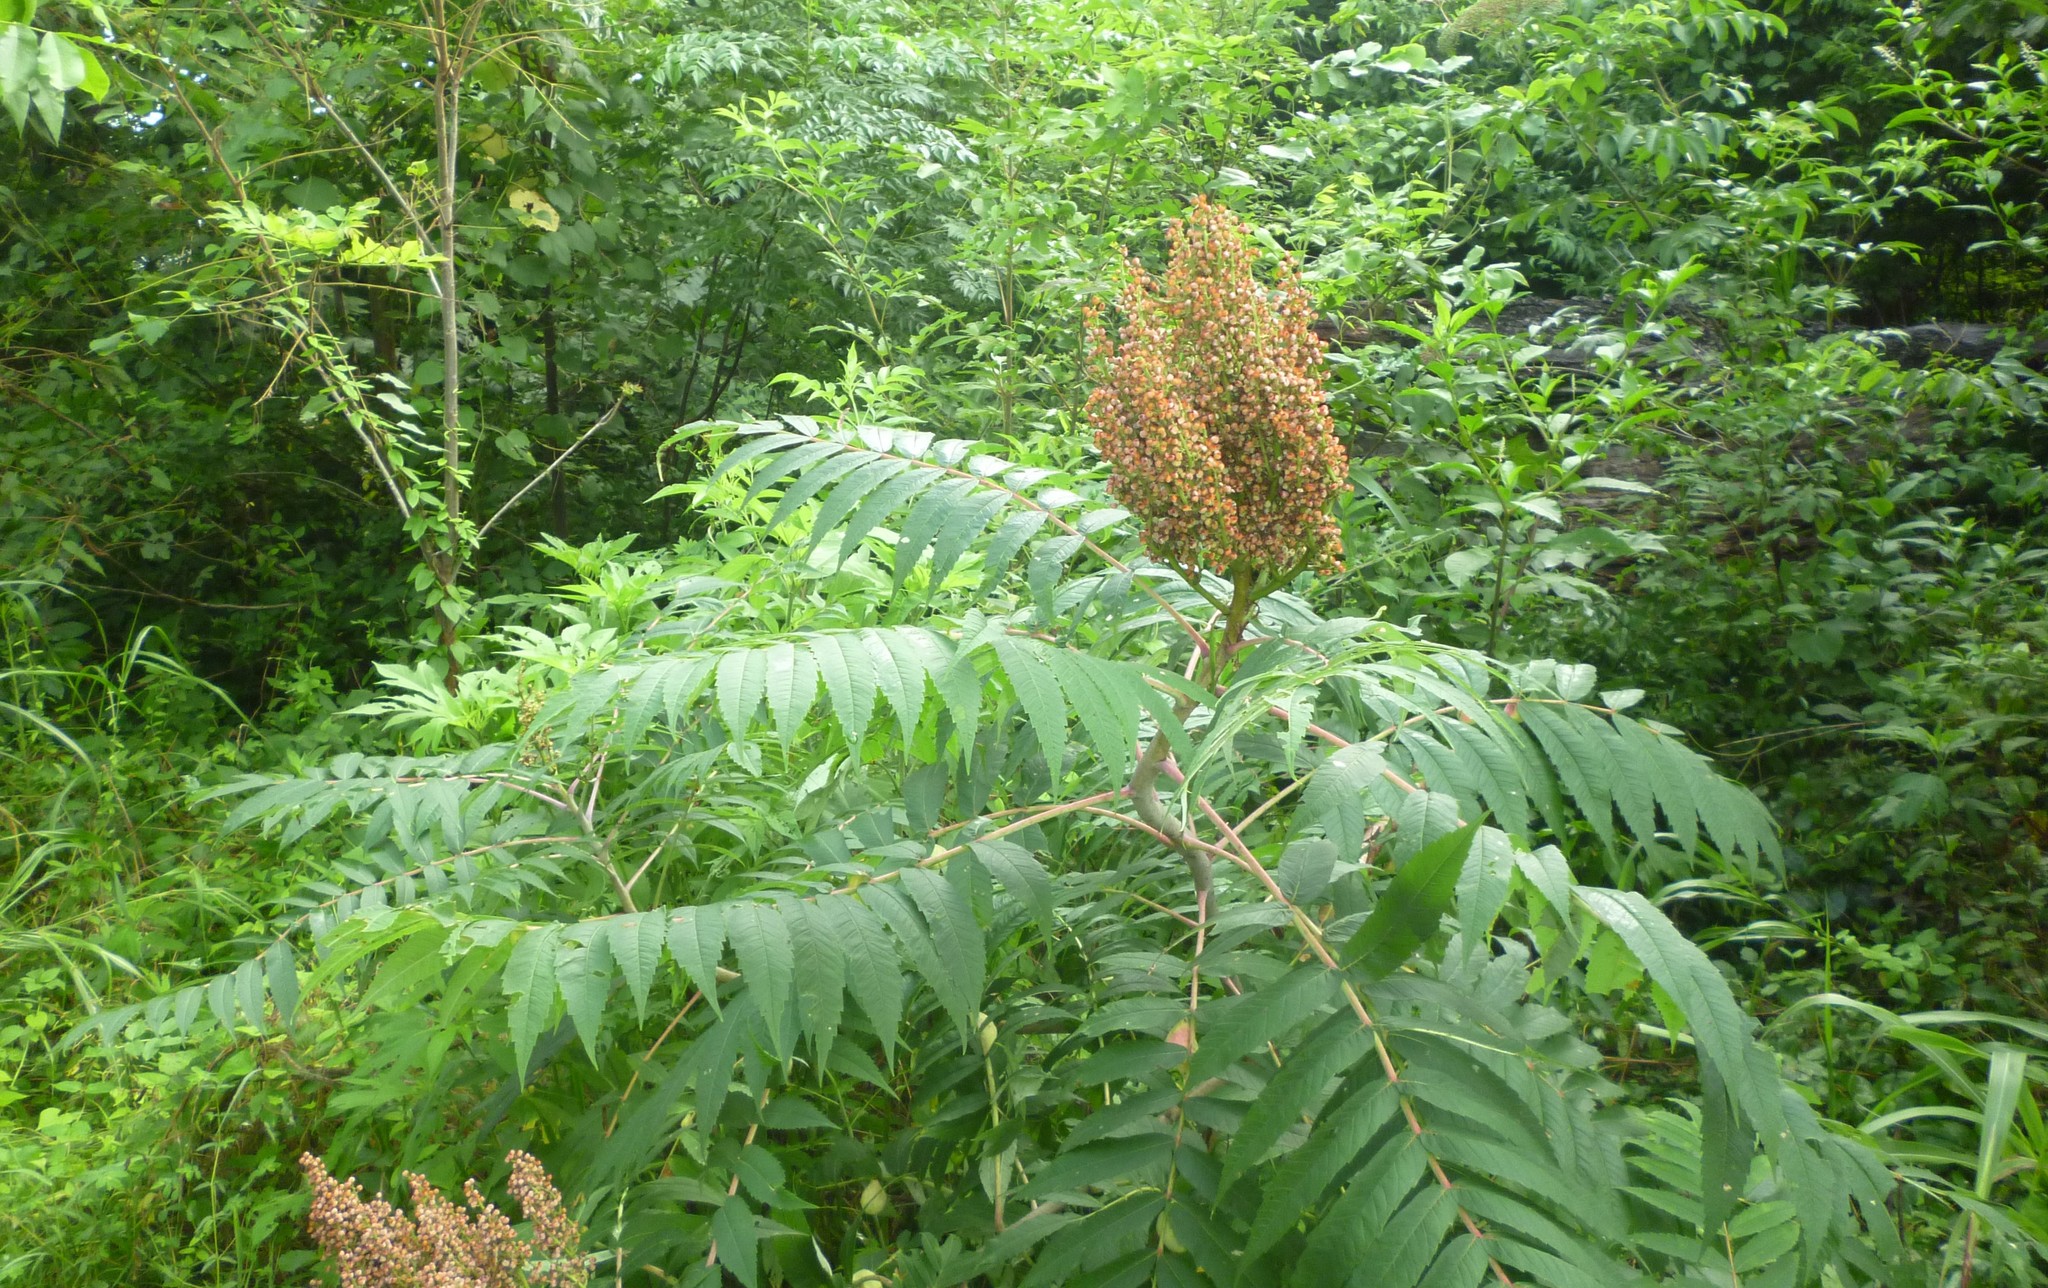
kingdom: Plantae
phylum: Tracheophyta
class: Magnoliopsida
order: Sapindales
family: Anacardiaceae
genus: Rhus
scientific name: Rhus glabra
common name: Scarlet sumac
